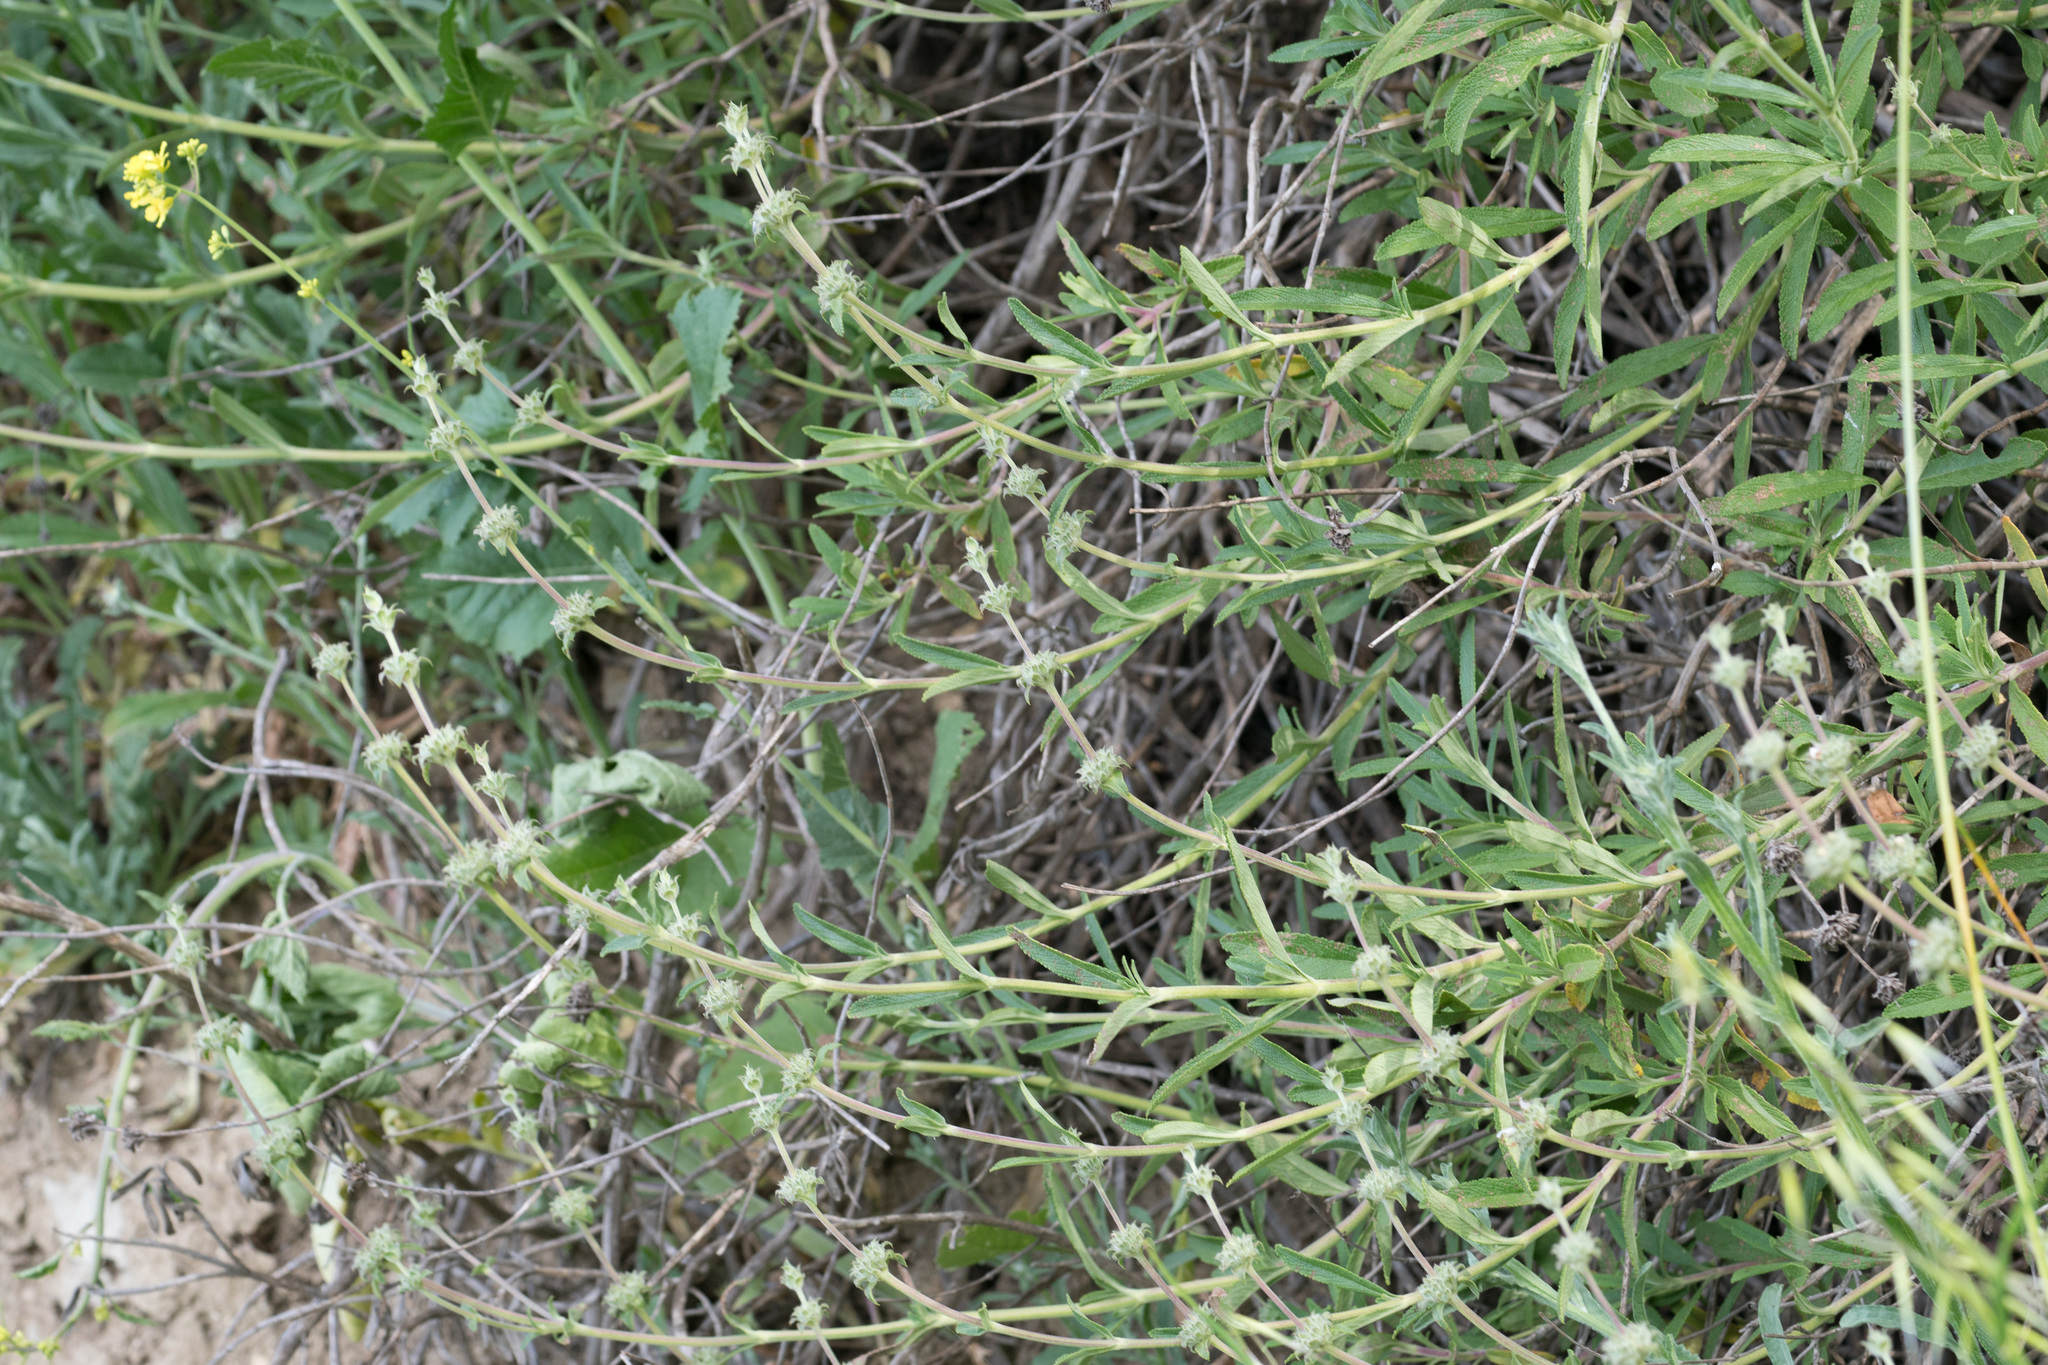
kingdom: Plantae
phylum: Tracheophyta
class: Magnoliopsida
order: Lamiales
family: Lamiaceae
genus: Salvia
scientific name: Salvia mellifera
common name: Black sage
